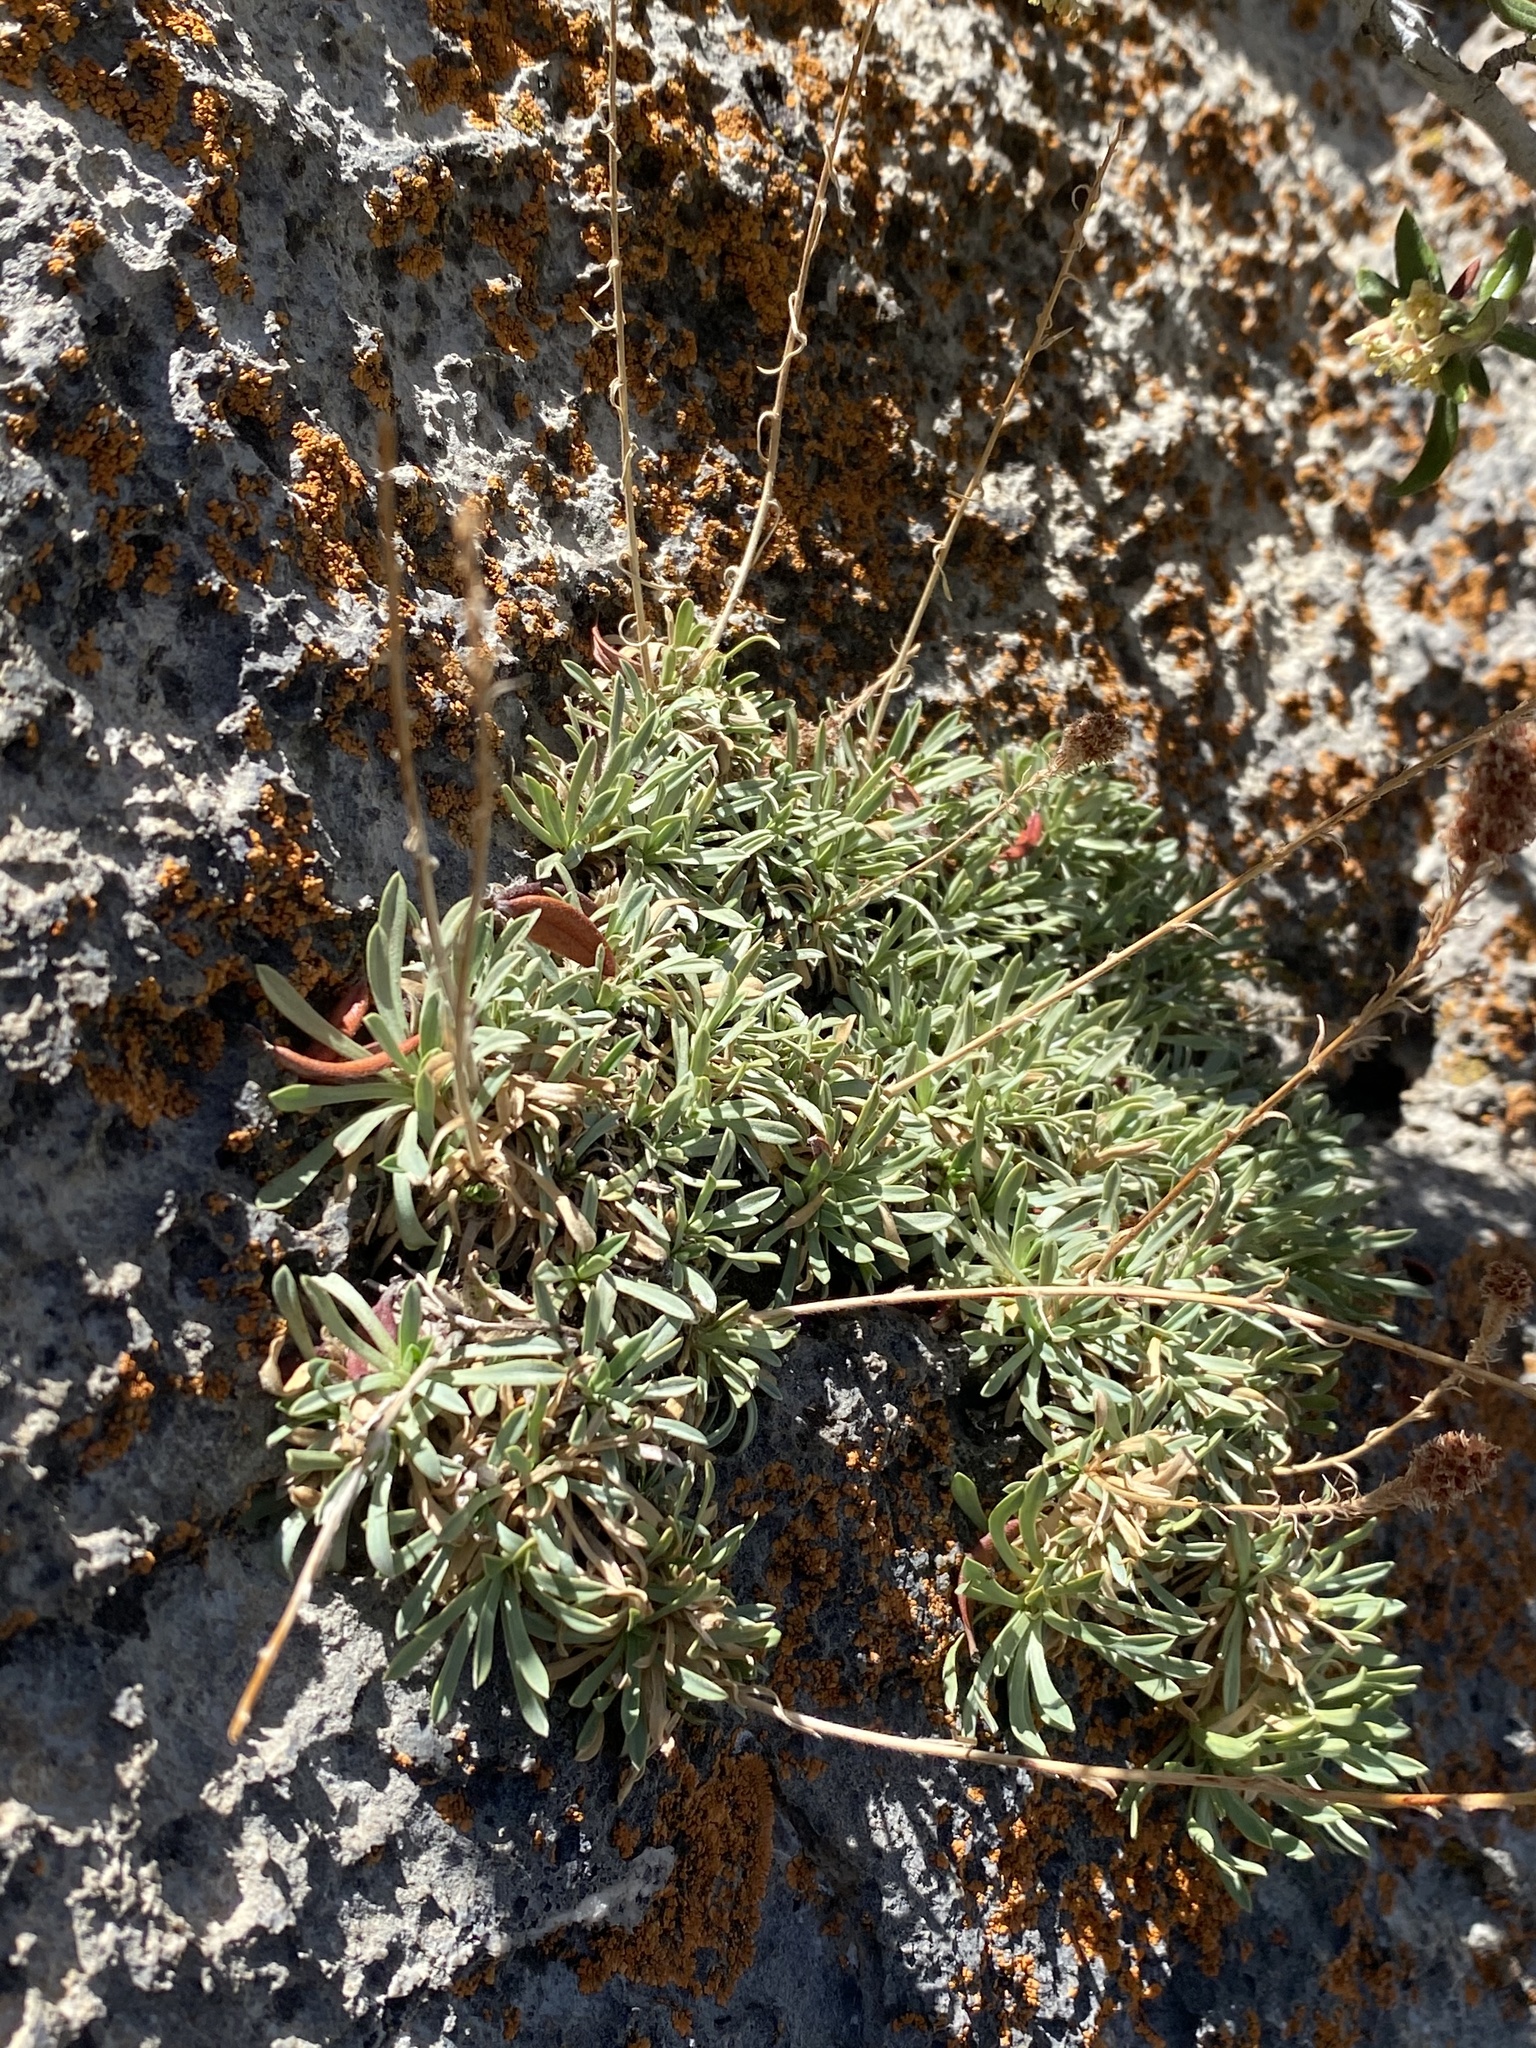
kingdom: Plantae
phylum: Tracheophyta
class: Magnoliopsida
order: Rosales
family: Rosaceae
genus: Petrophytum
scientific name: Petrophytum caespitosum
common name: Mat rockspirea
